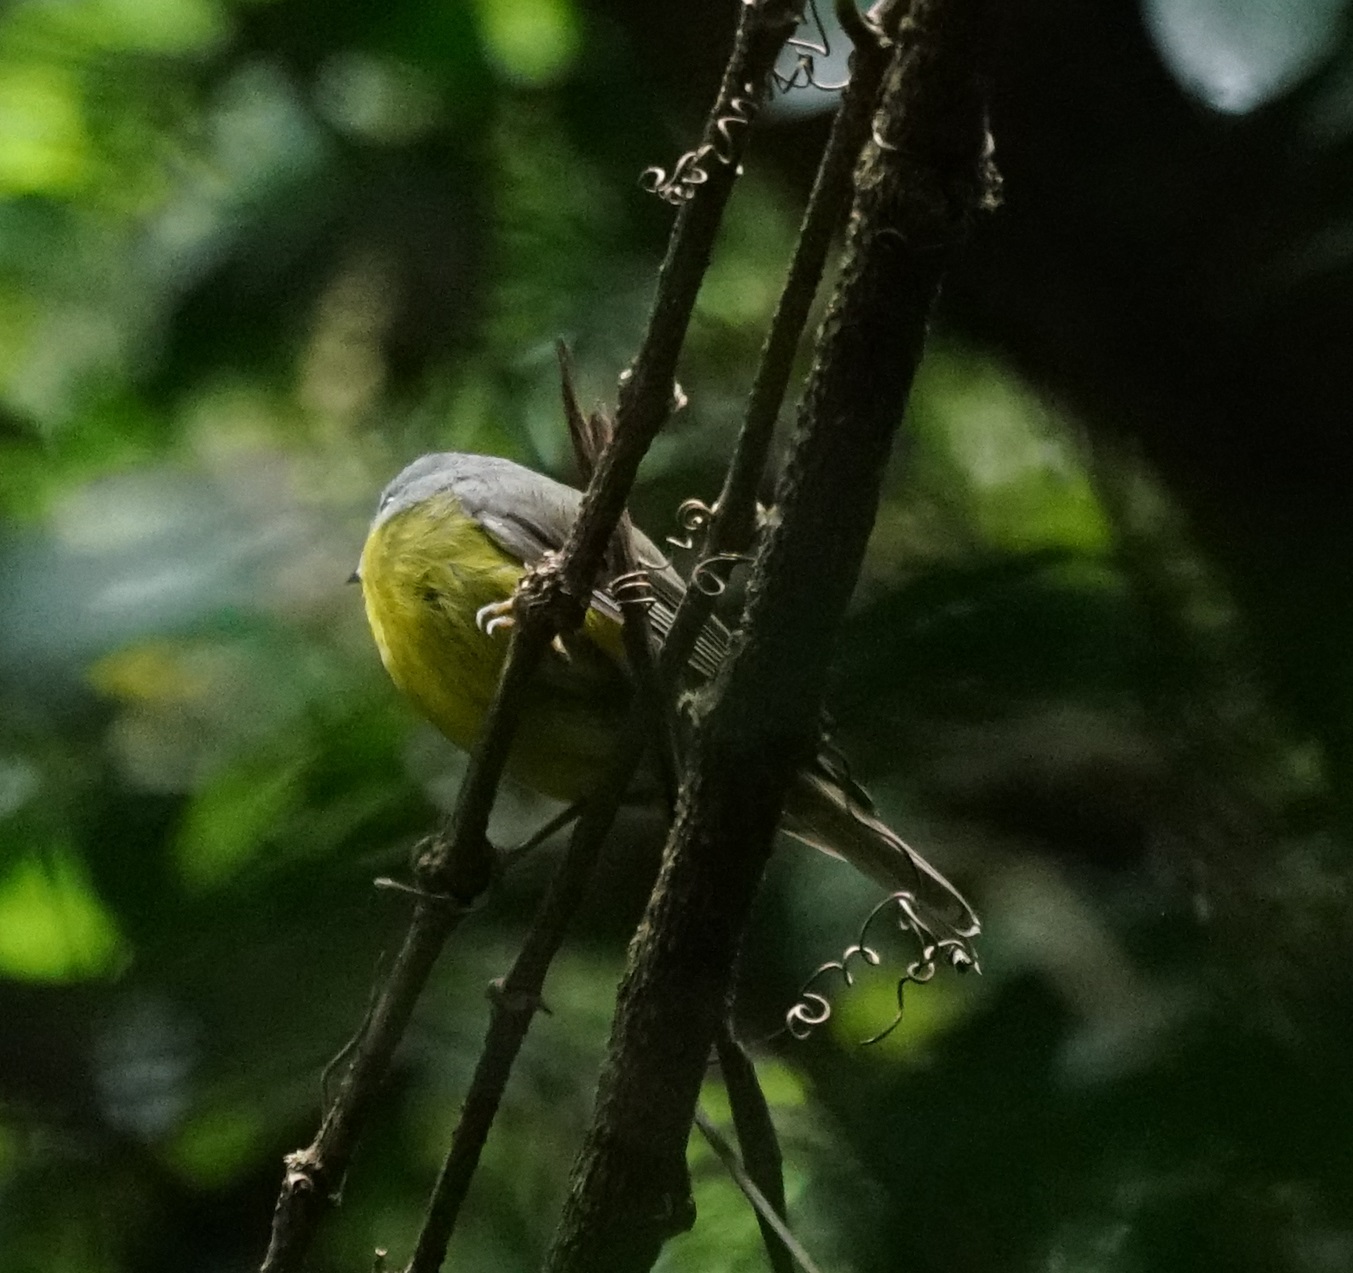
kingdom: Animalia
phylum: Chordata
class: Aves
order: Passeriformes
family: Petroicidae
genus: Eopsaltria
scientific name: Eopsaltria australis
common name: Eastern yellow robin
